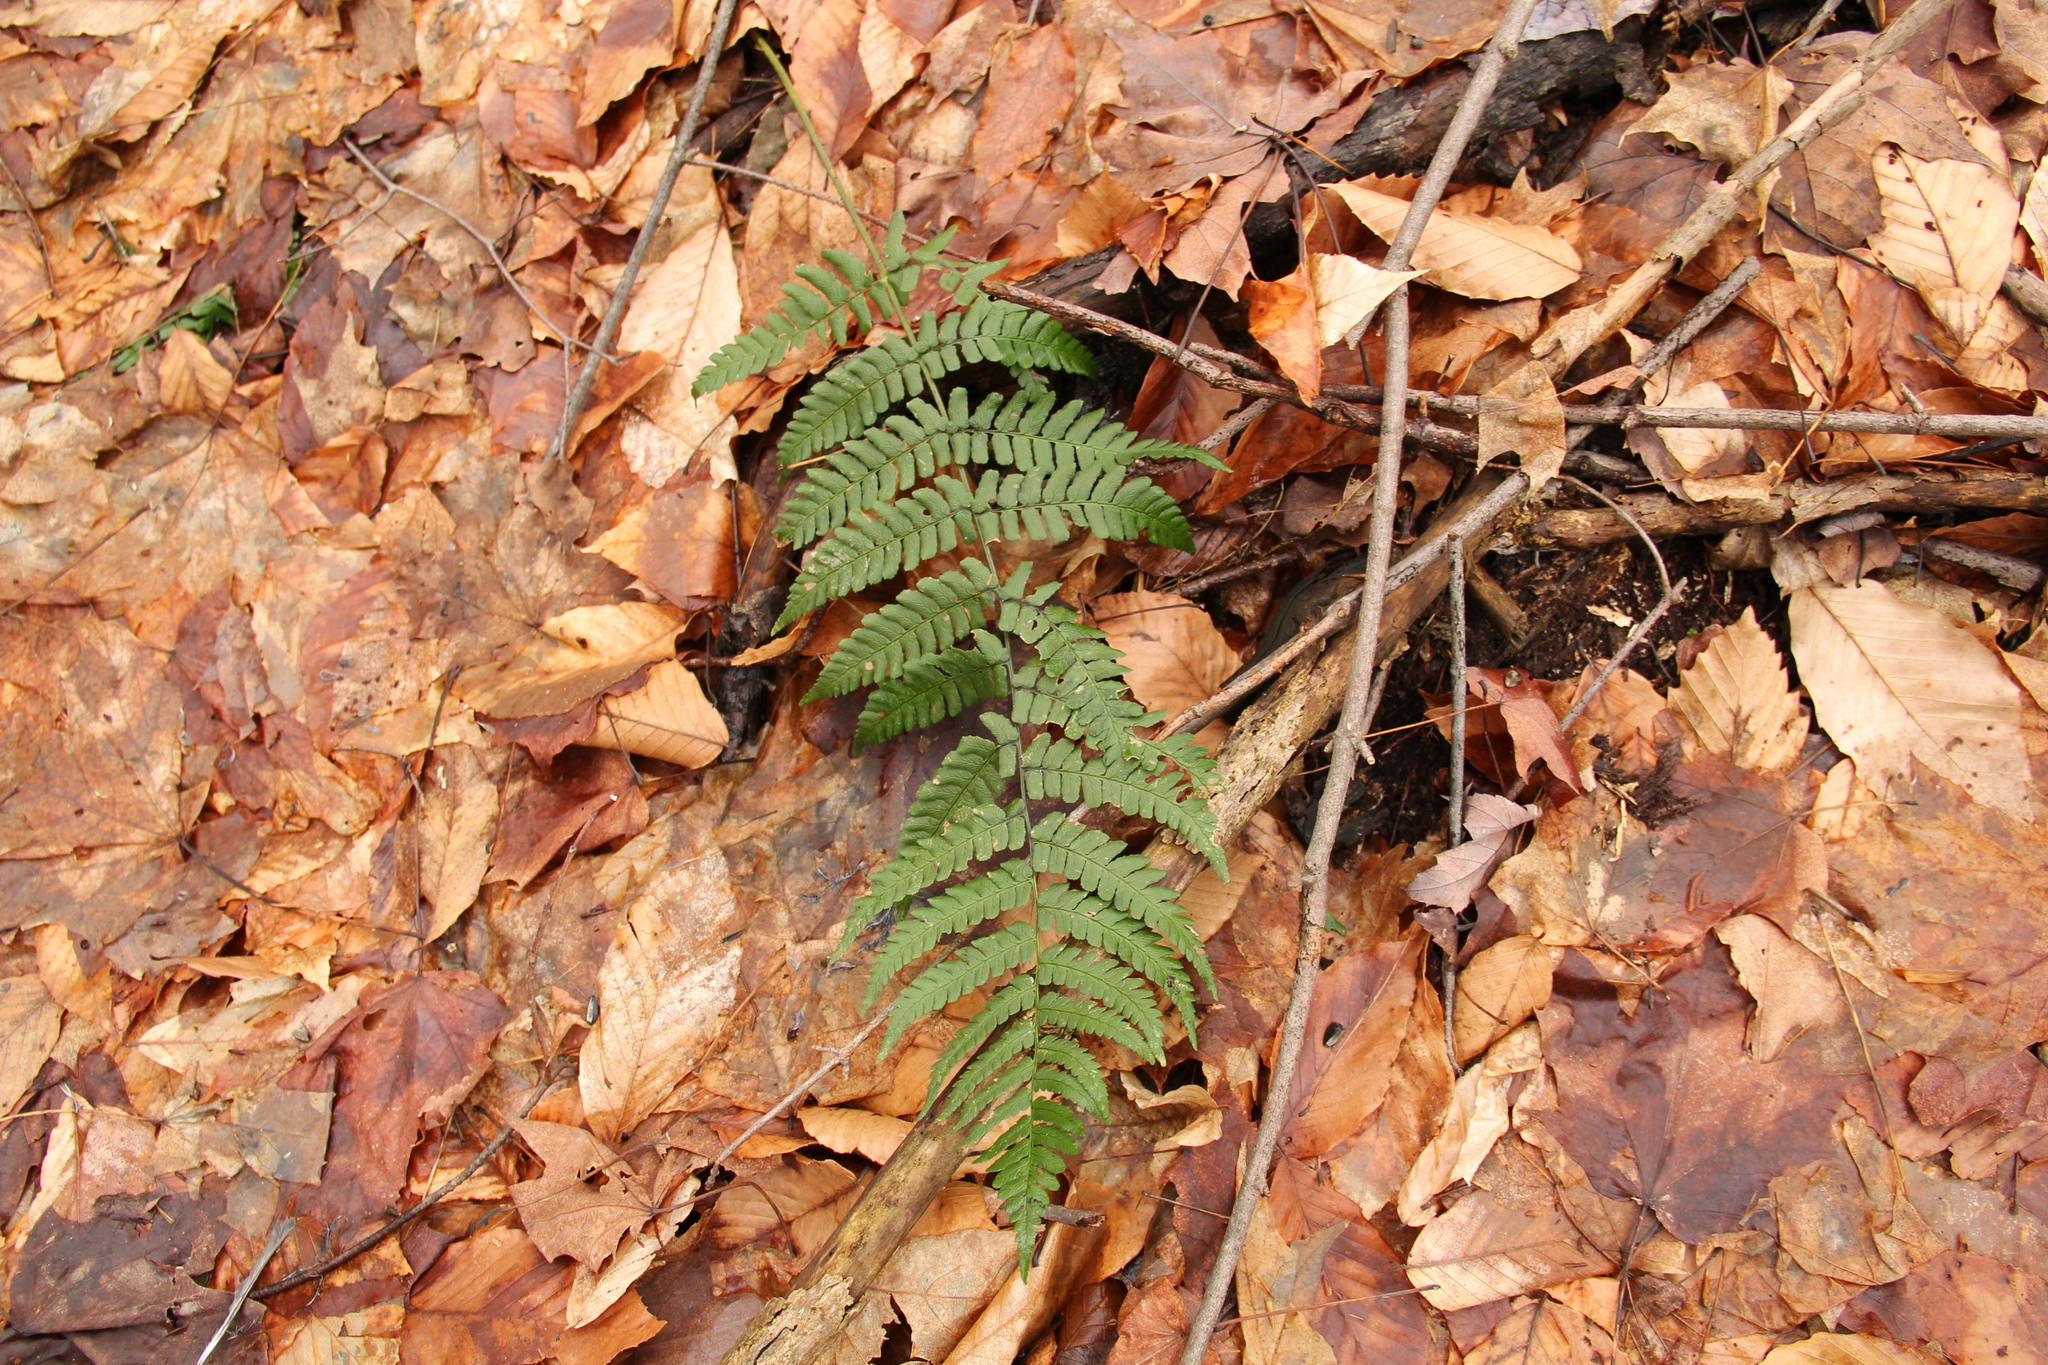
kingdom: Plantae
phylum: Tracheophyta
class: Polypodiopsida
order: Polypodiales
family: Dryopteridaceae
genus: Dryopteris
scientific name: Dryopteris marginalis
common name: Marginal wood fern
